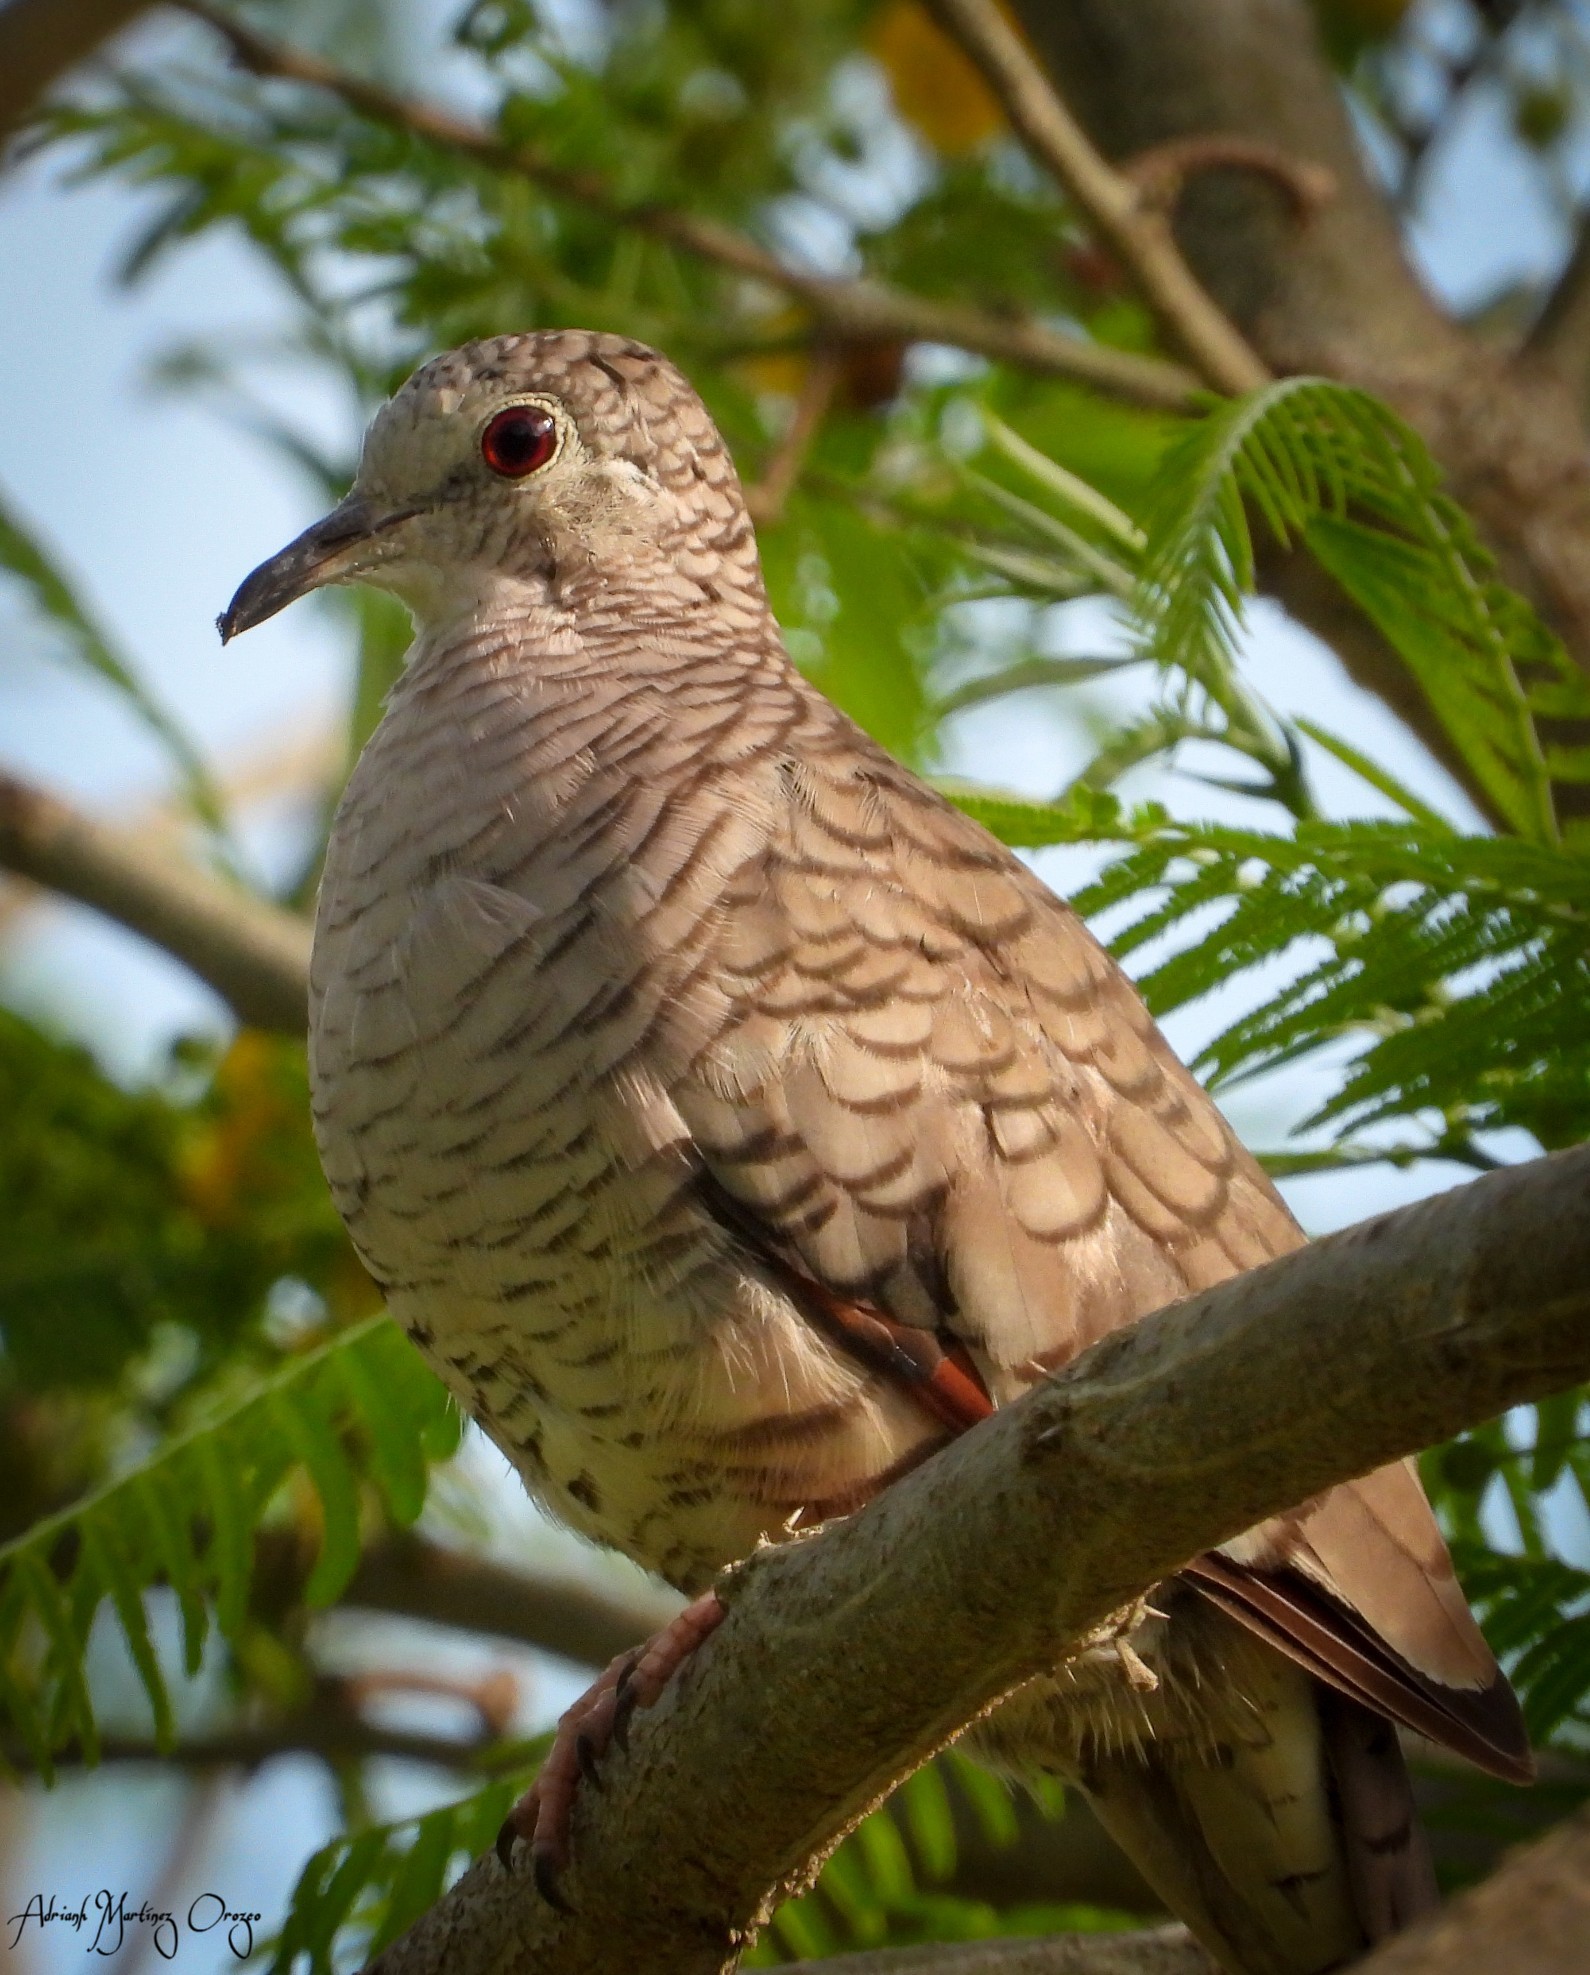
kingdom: Animalia
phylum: Chordata
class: Aves
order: Columbiformes
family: Columbidae
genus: Columbina
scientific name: Columbina inca
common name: Inca dove
